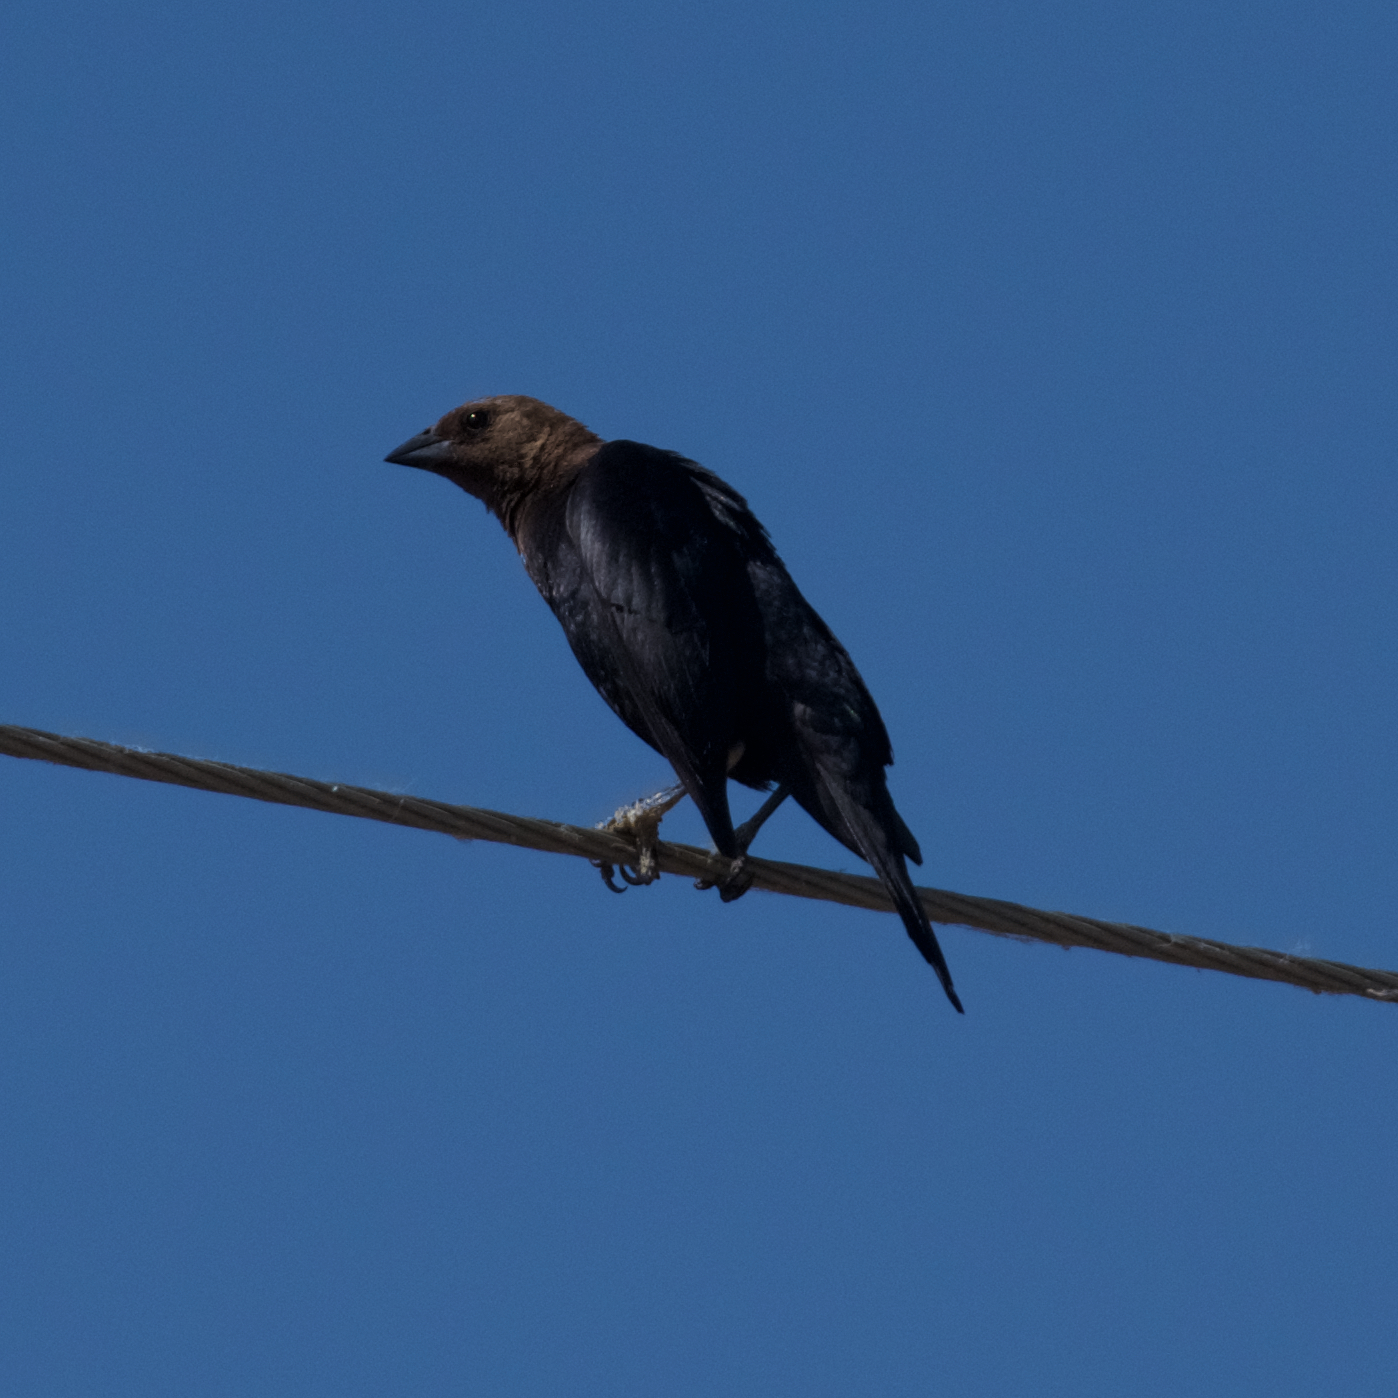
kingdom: Animalia
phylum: Chordata
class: Aves
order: Passeriformes
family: Icteridae
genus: Molothrus
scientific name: Molothrus ater
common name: Brown-headed cowbird
